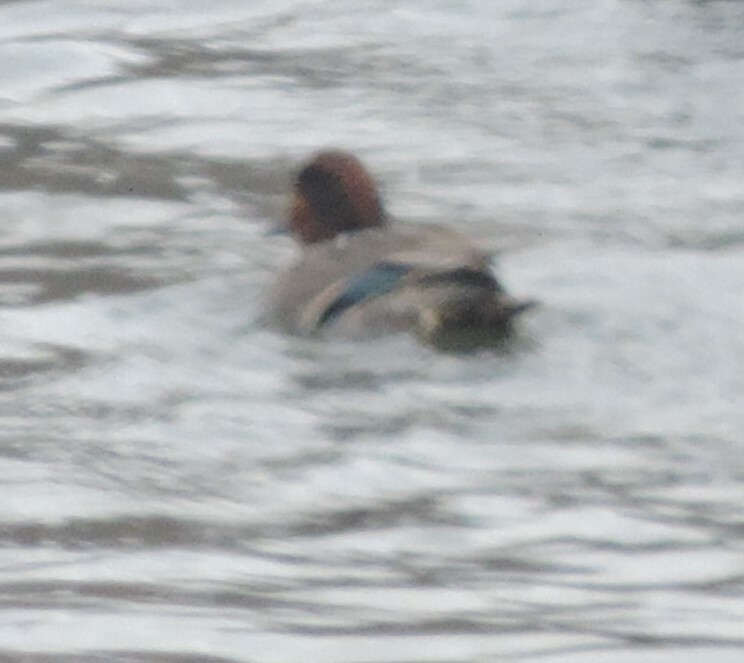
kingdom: Animalia
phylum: Chordata
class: Aves
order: Anseriformes
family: Anatidae
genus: Anas
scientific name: Anas crecca
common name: Eurasian teal
